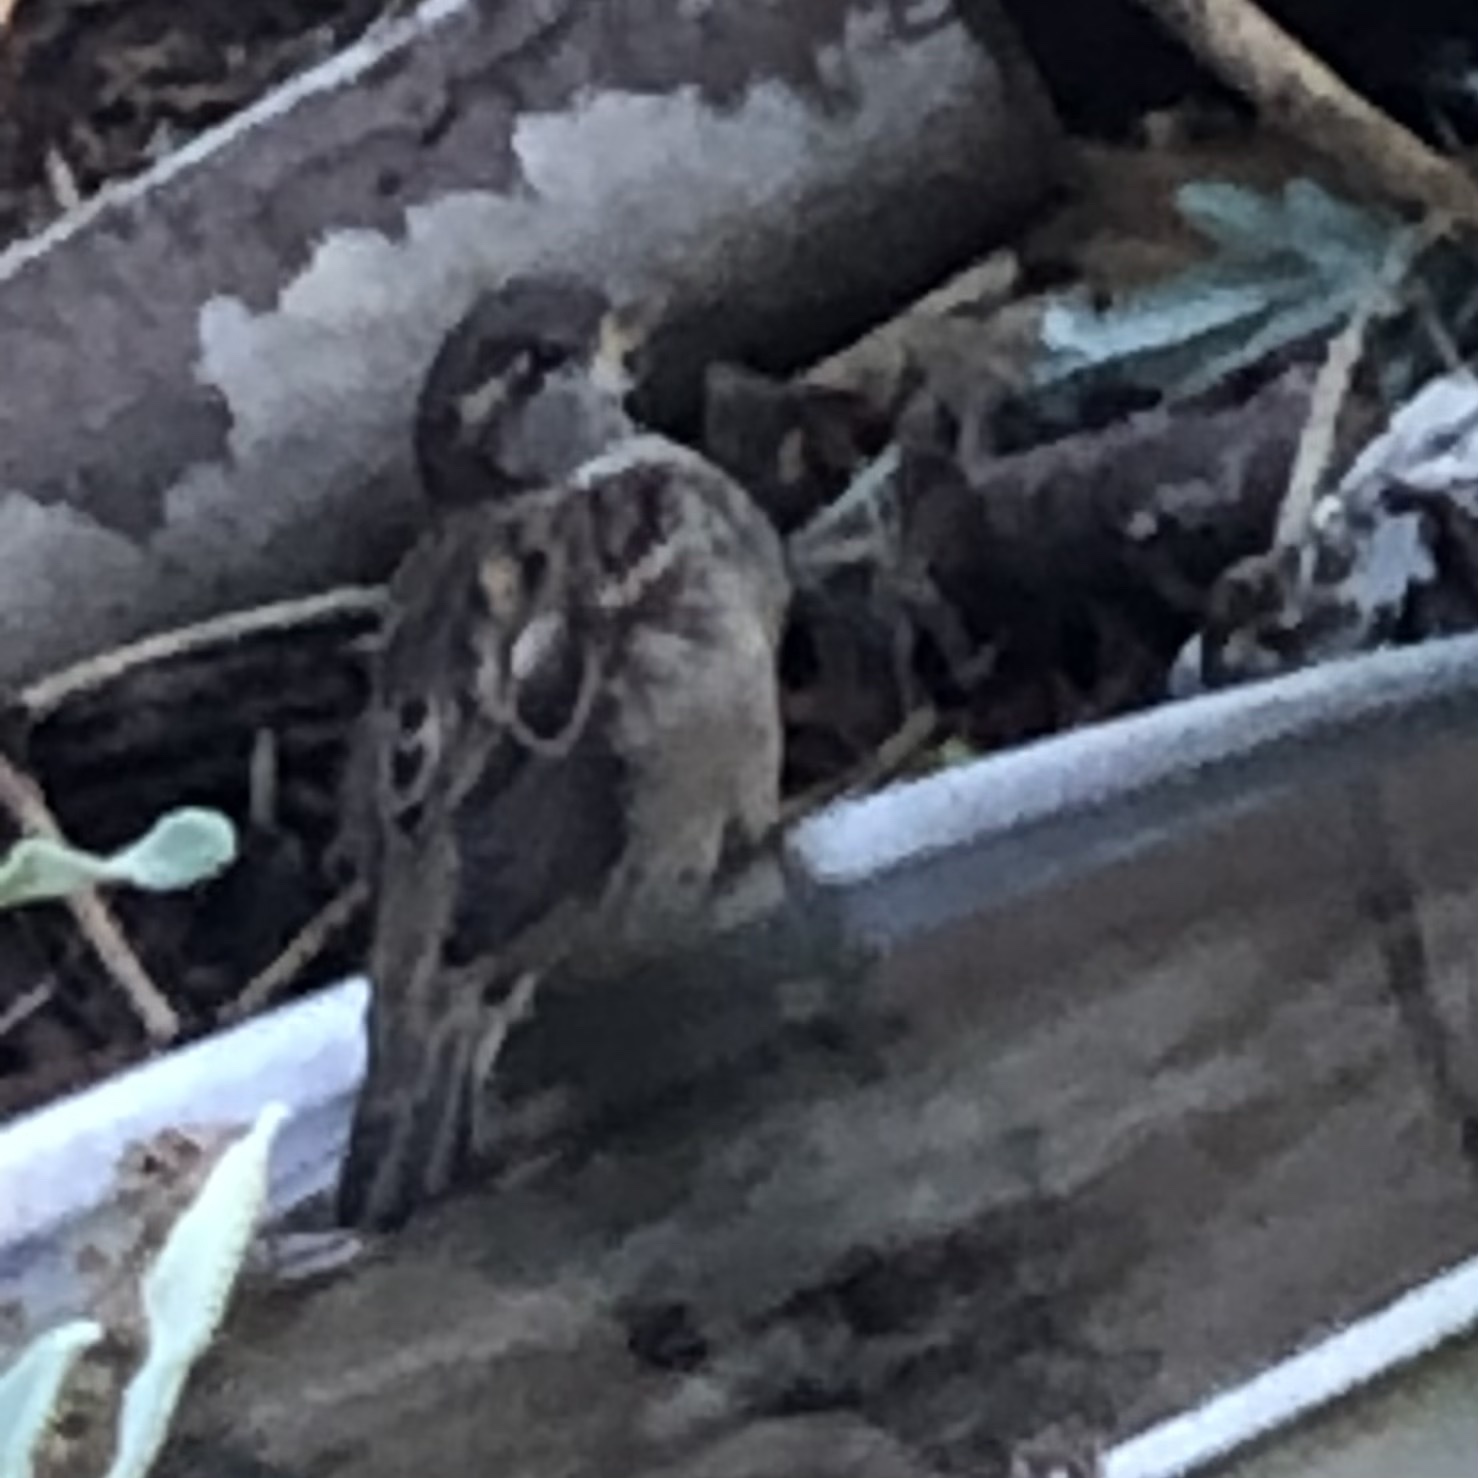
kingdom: Animalia
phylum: Chordata
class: Aves
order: Passeriformes
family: Passeridae
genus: Passer
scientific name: Passer domesticus
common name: House sparrow
